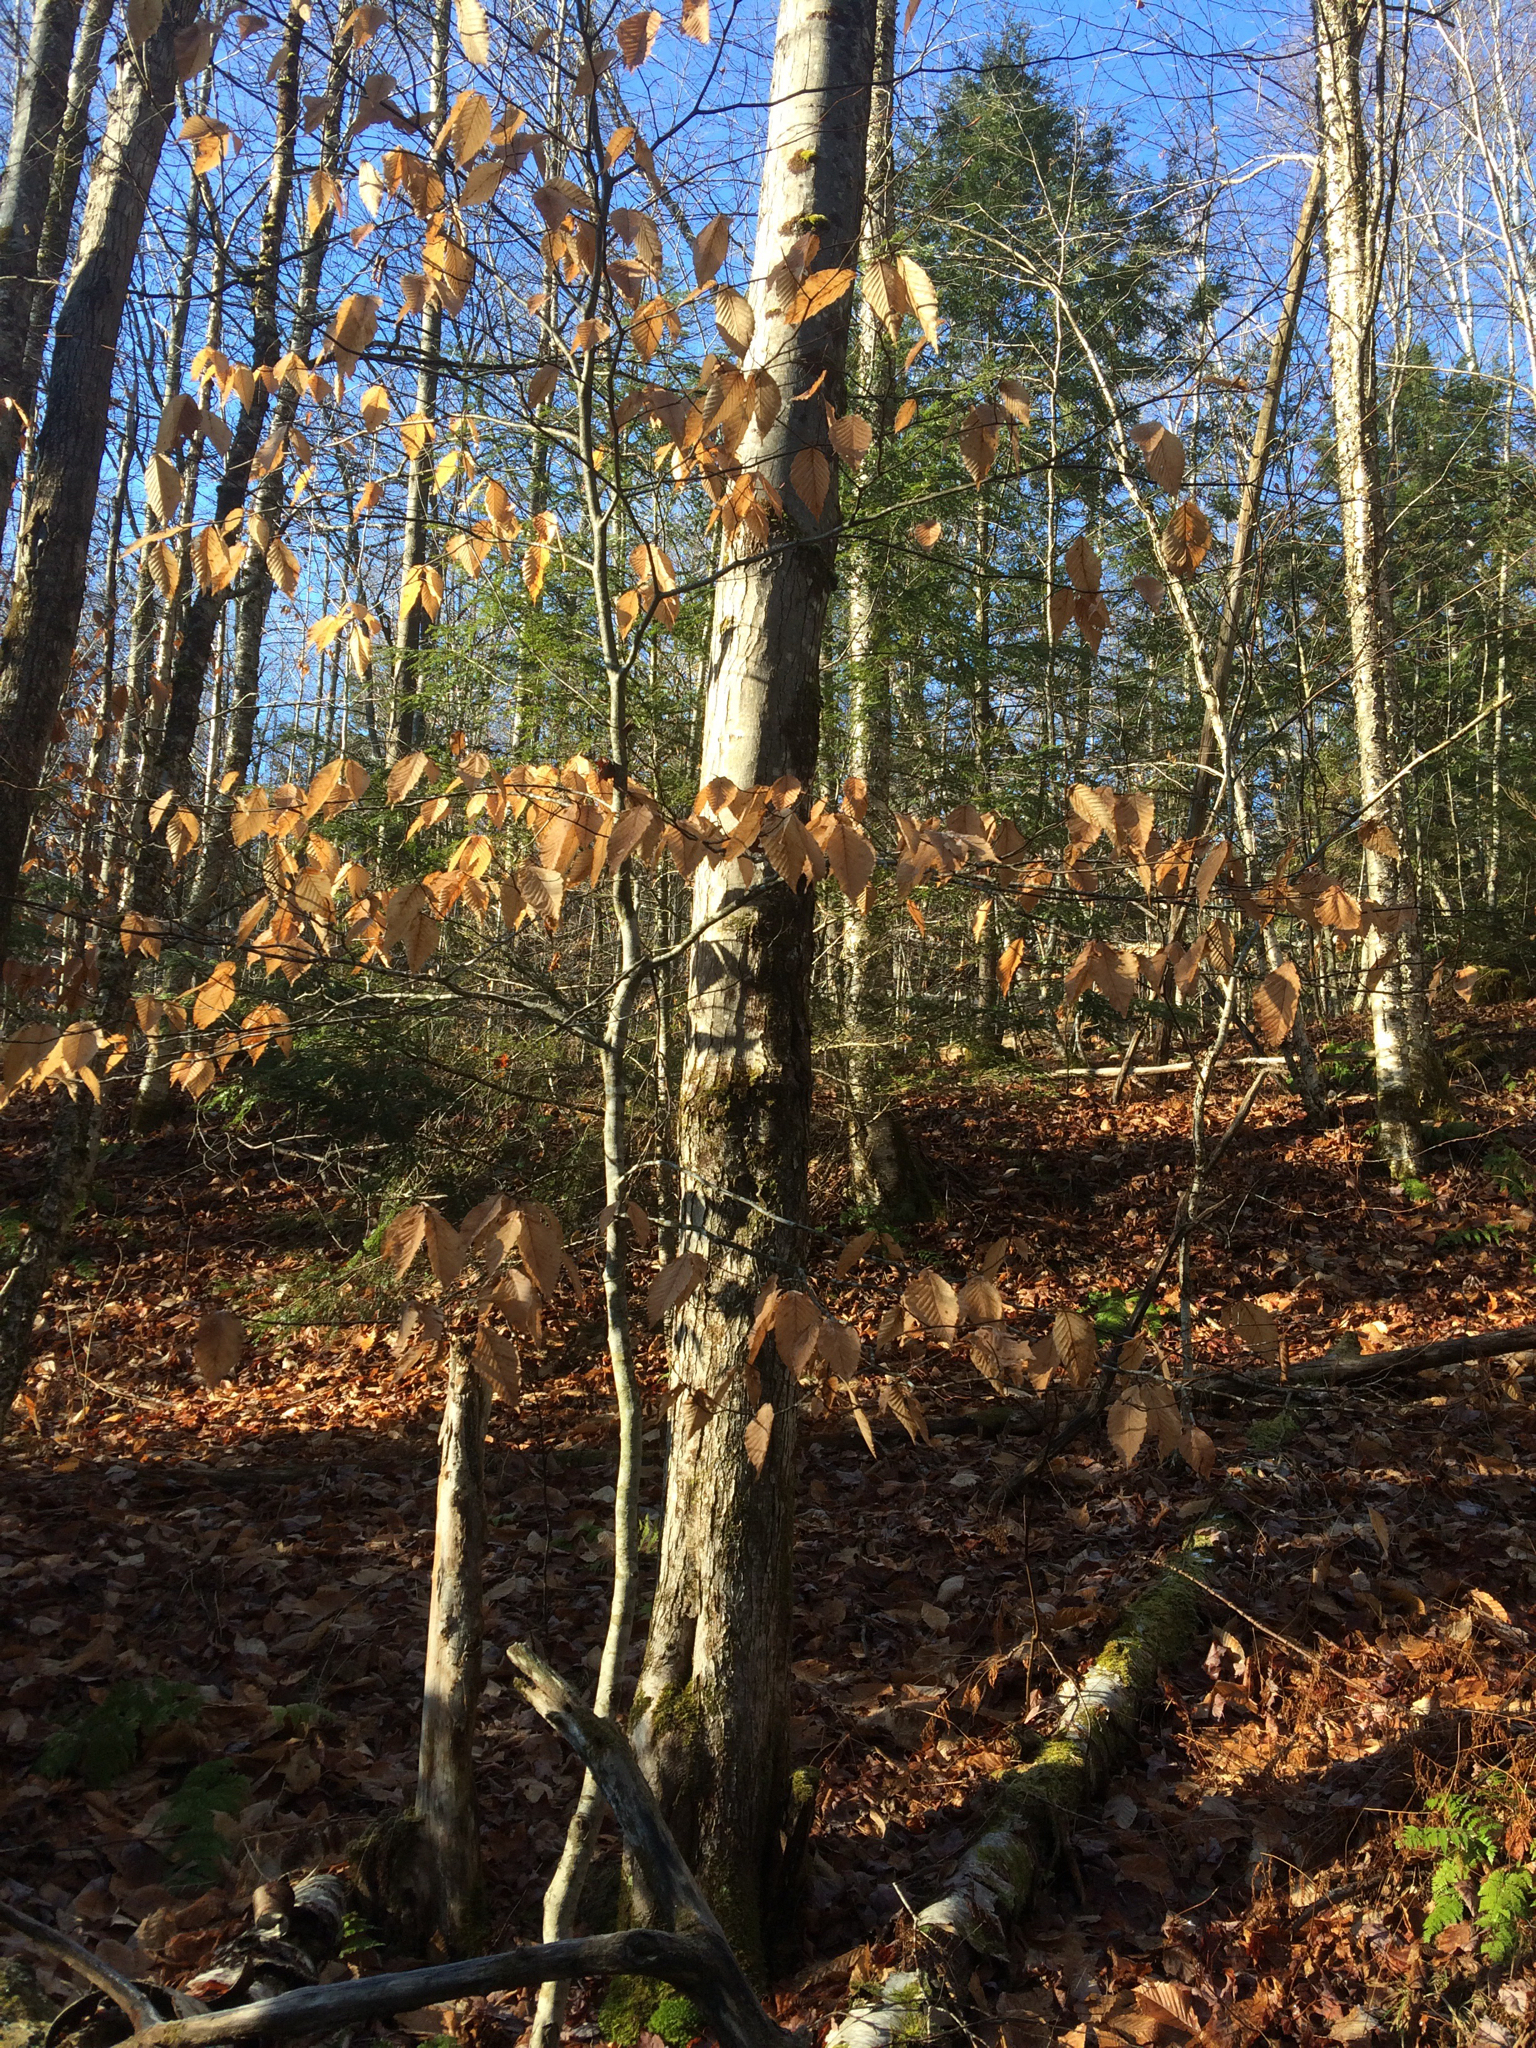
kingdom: Plantae
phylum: Tracheophyta
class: Magnoliopsida
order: Fagales
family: Fagaceae
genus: Fagus
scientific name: Fagus grandifolia
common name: American beech
